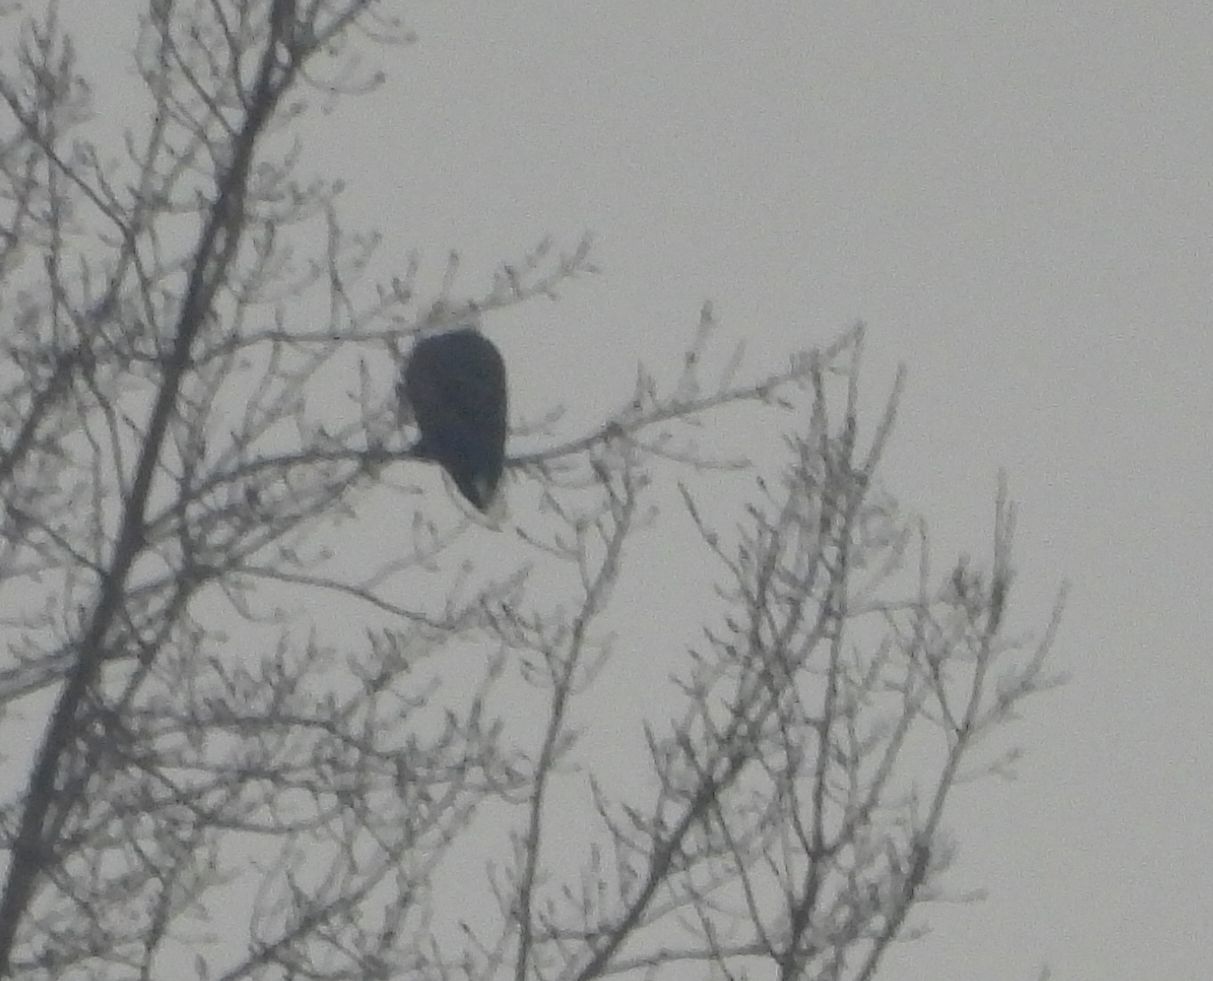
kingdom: Animalia
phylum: Chordata
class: Aves
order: Accipitriformes
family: Accipitridae
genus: Haliaeetus
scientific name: Haliaeetus leucocephalus
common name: Bald eagle
